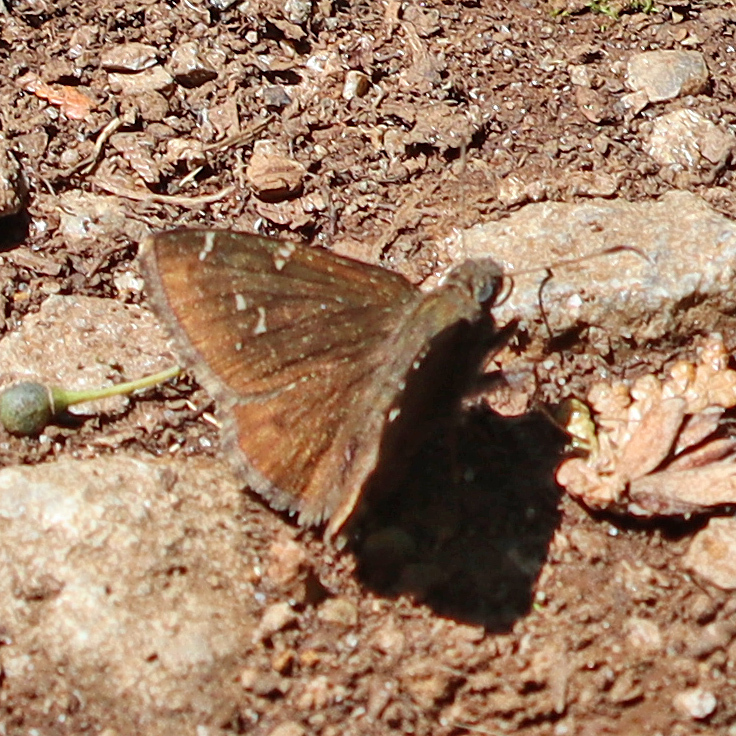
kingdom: Animalia
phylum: Arthropoda
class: Insecta
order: Lepidoptera
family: Hesperiidae
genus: Thorybes
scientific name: Thorybes pylades
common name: Northern cloudywing
